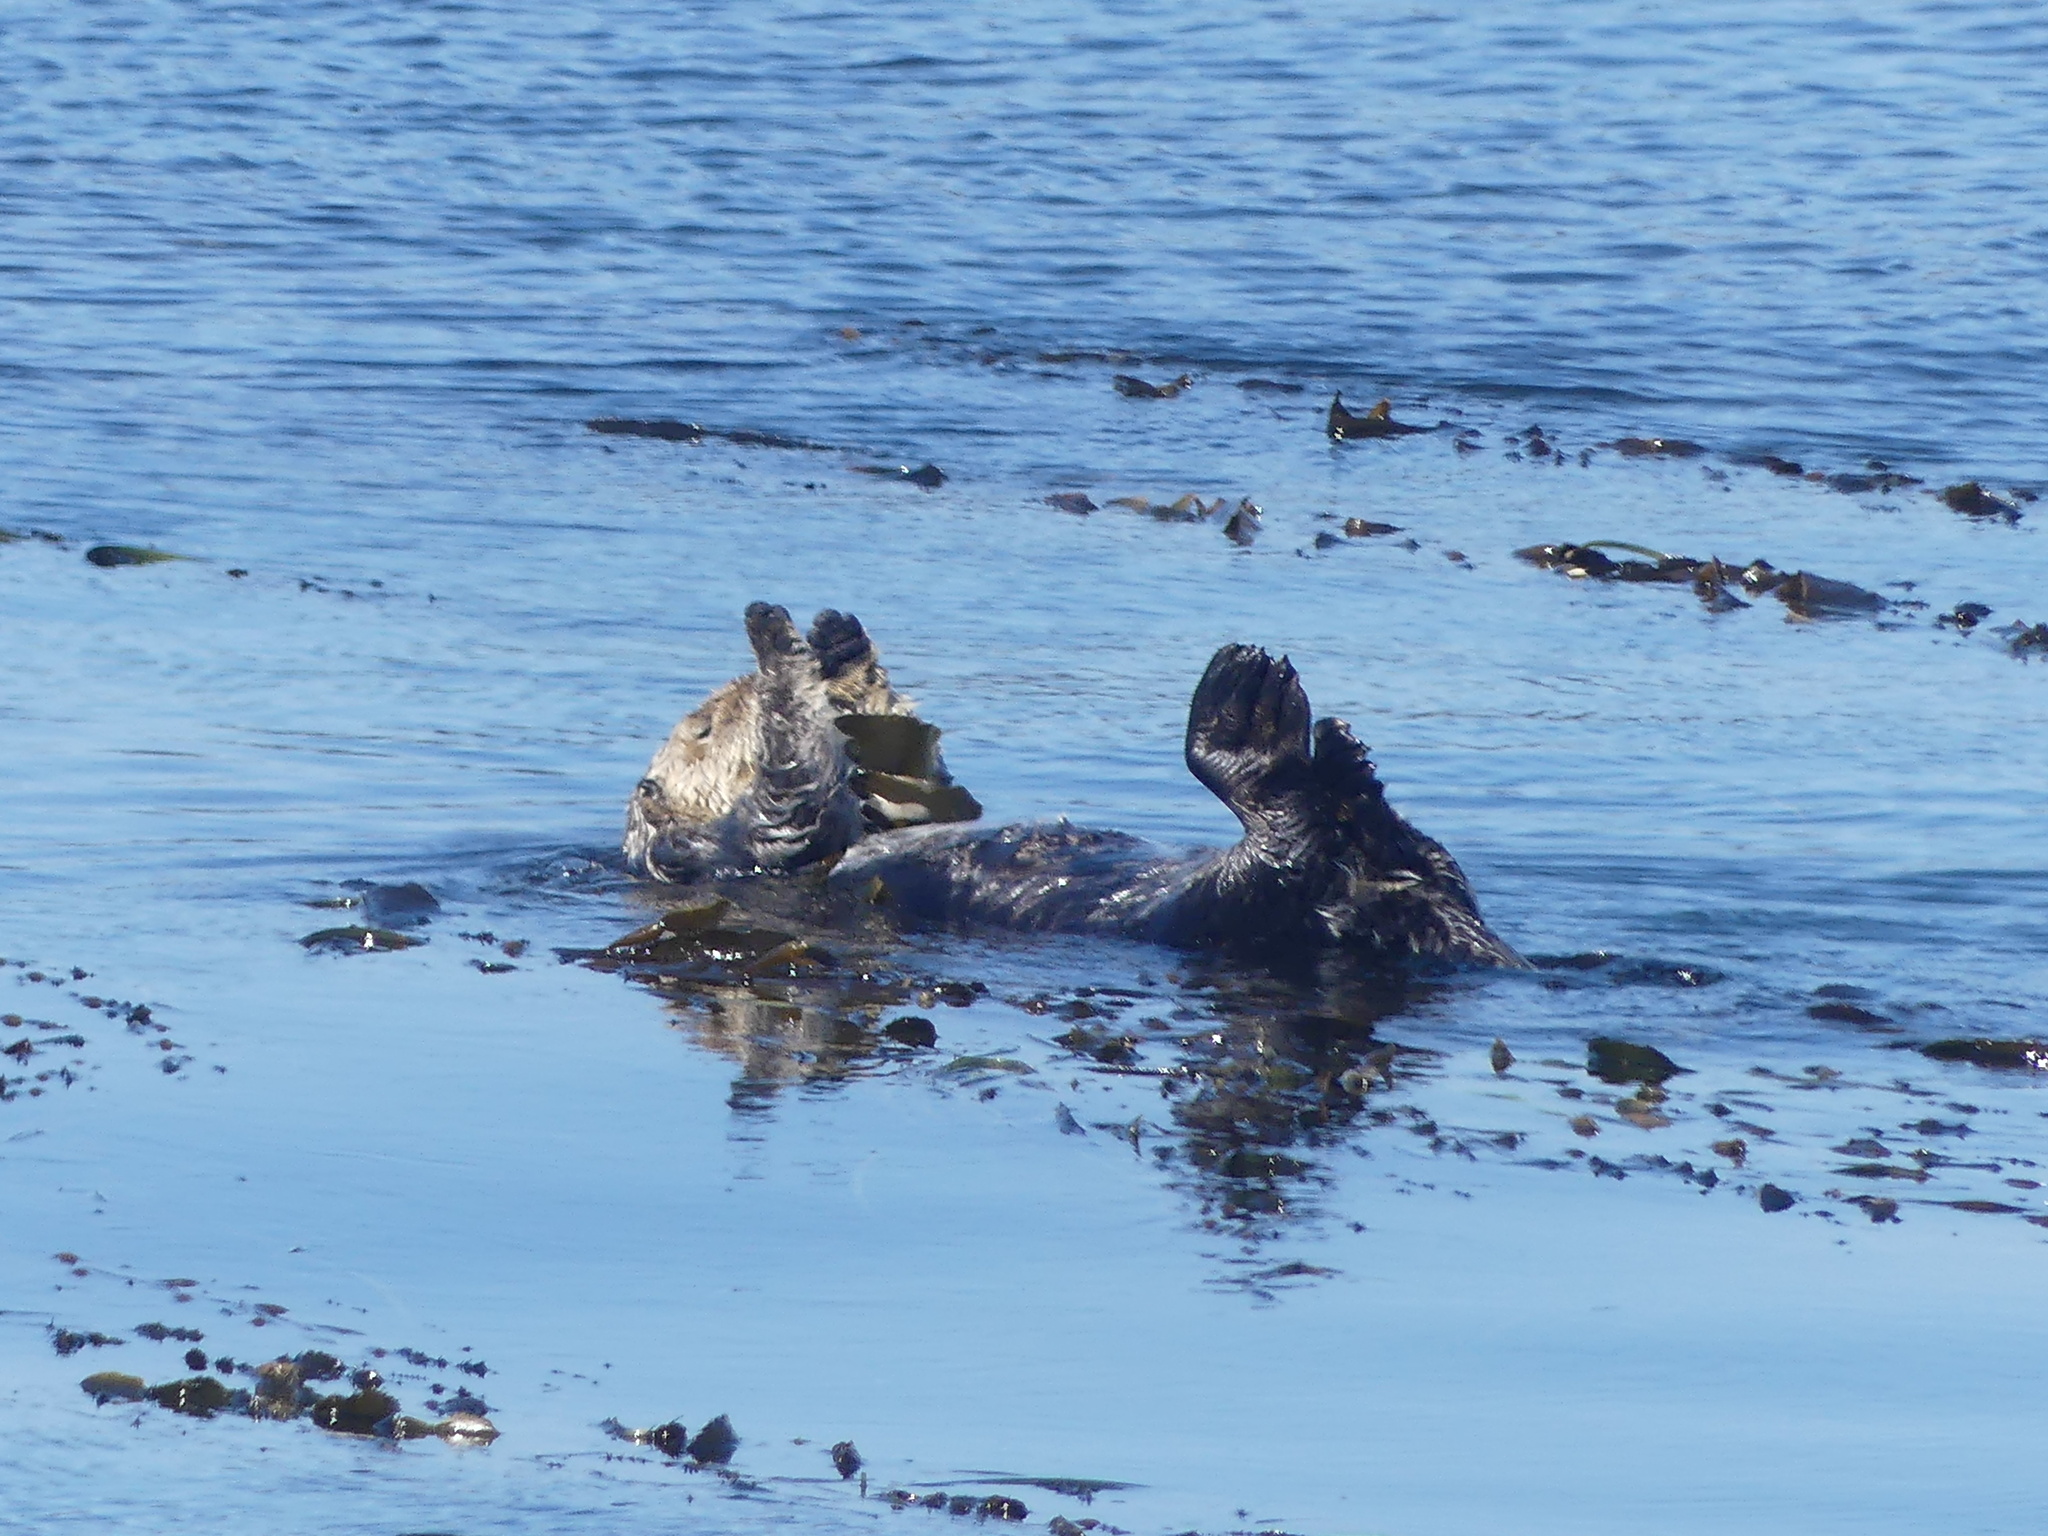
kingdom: Animalia
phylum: Chordata
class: Mammalia
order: Carnivora
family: Mustelidae
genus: Enhydra
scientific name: Enhydra lutris
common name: Sea otter
